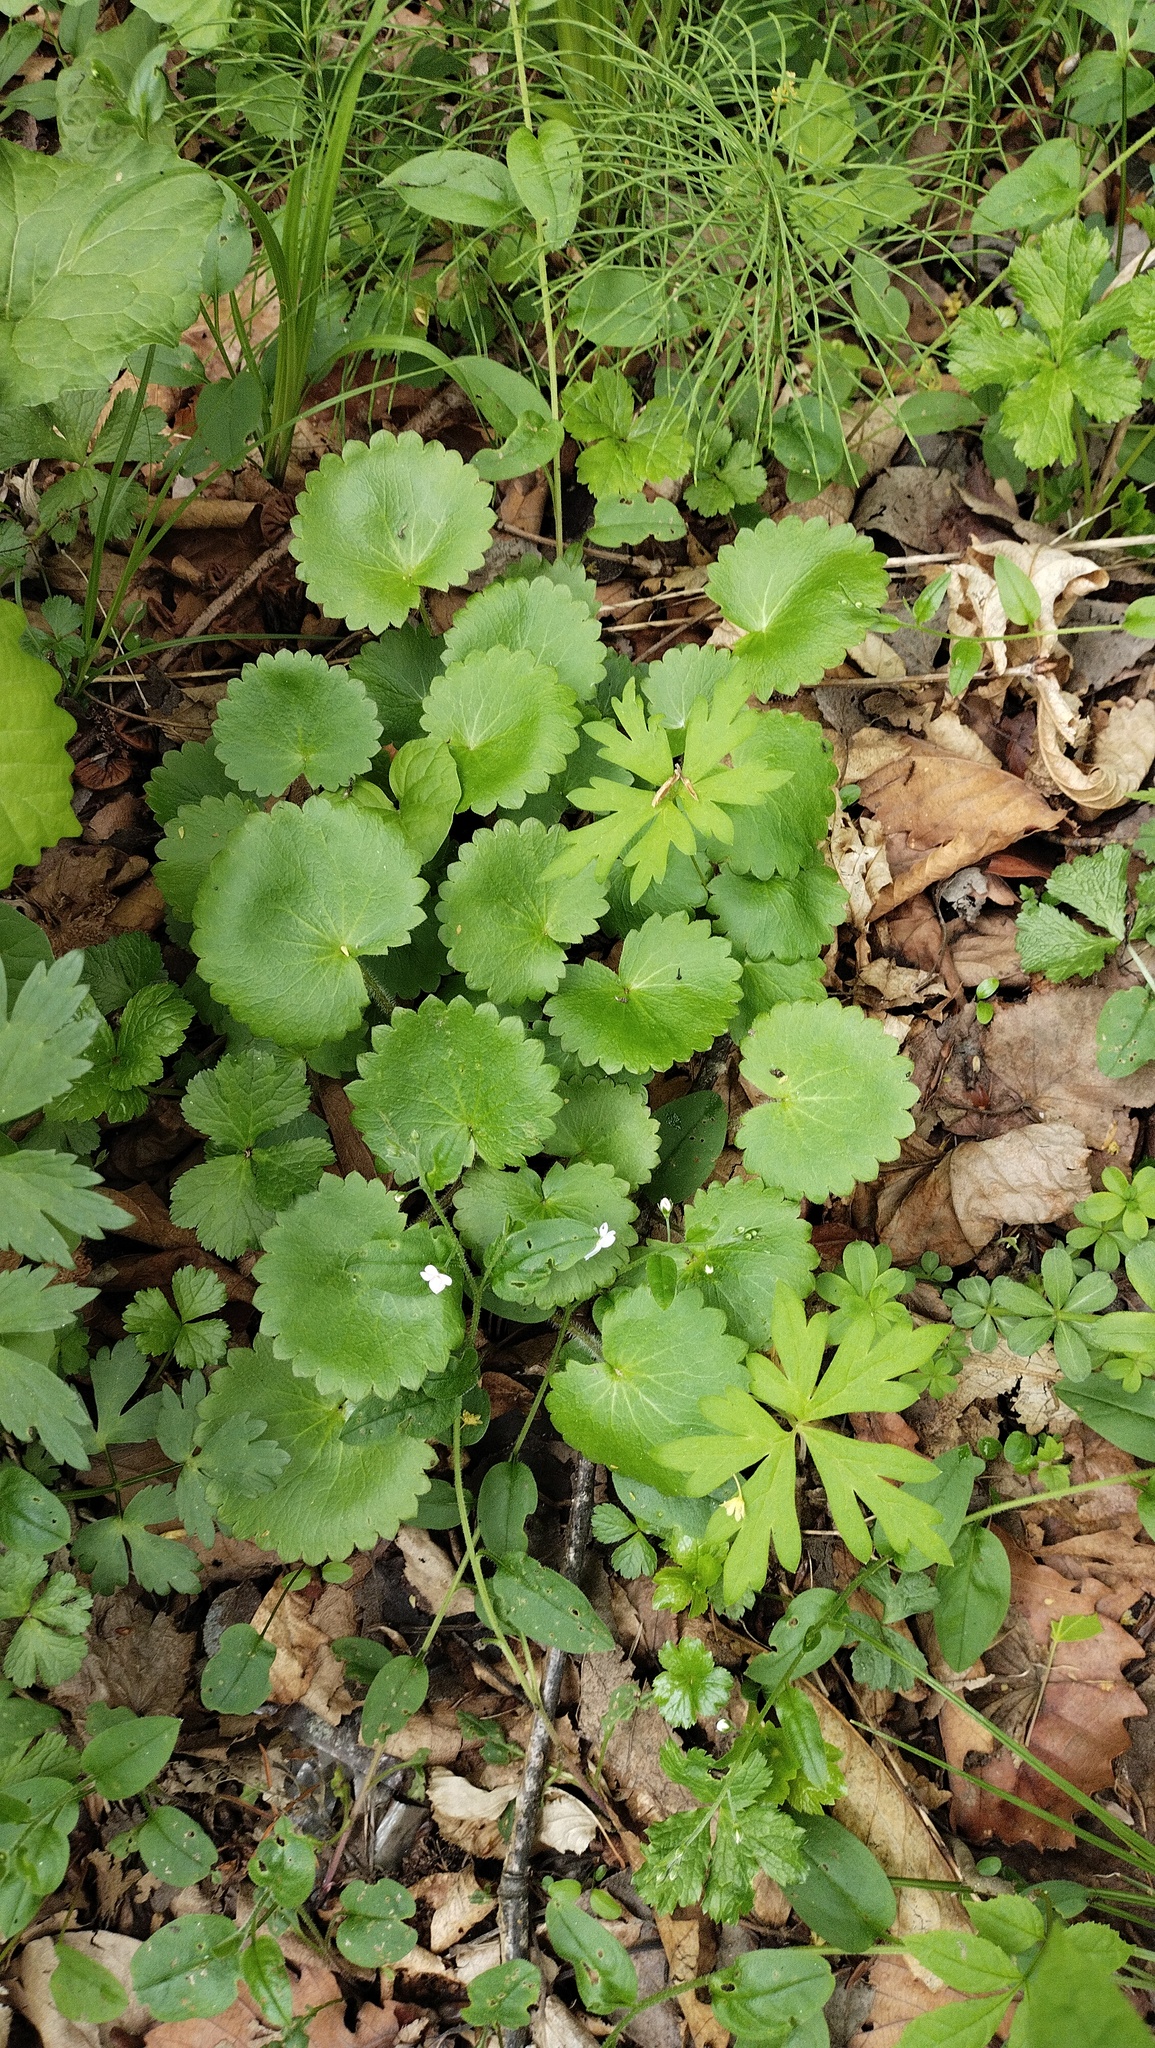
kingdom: Plantae
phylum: Tracheophyta
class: Magnoliopsida
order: Saxifragales
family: Saxifragaceae
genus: Micranthes
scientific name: Micranthes manchuriensis
